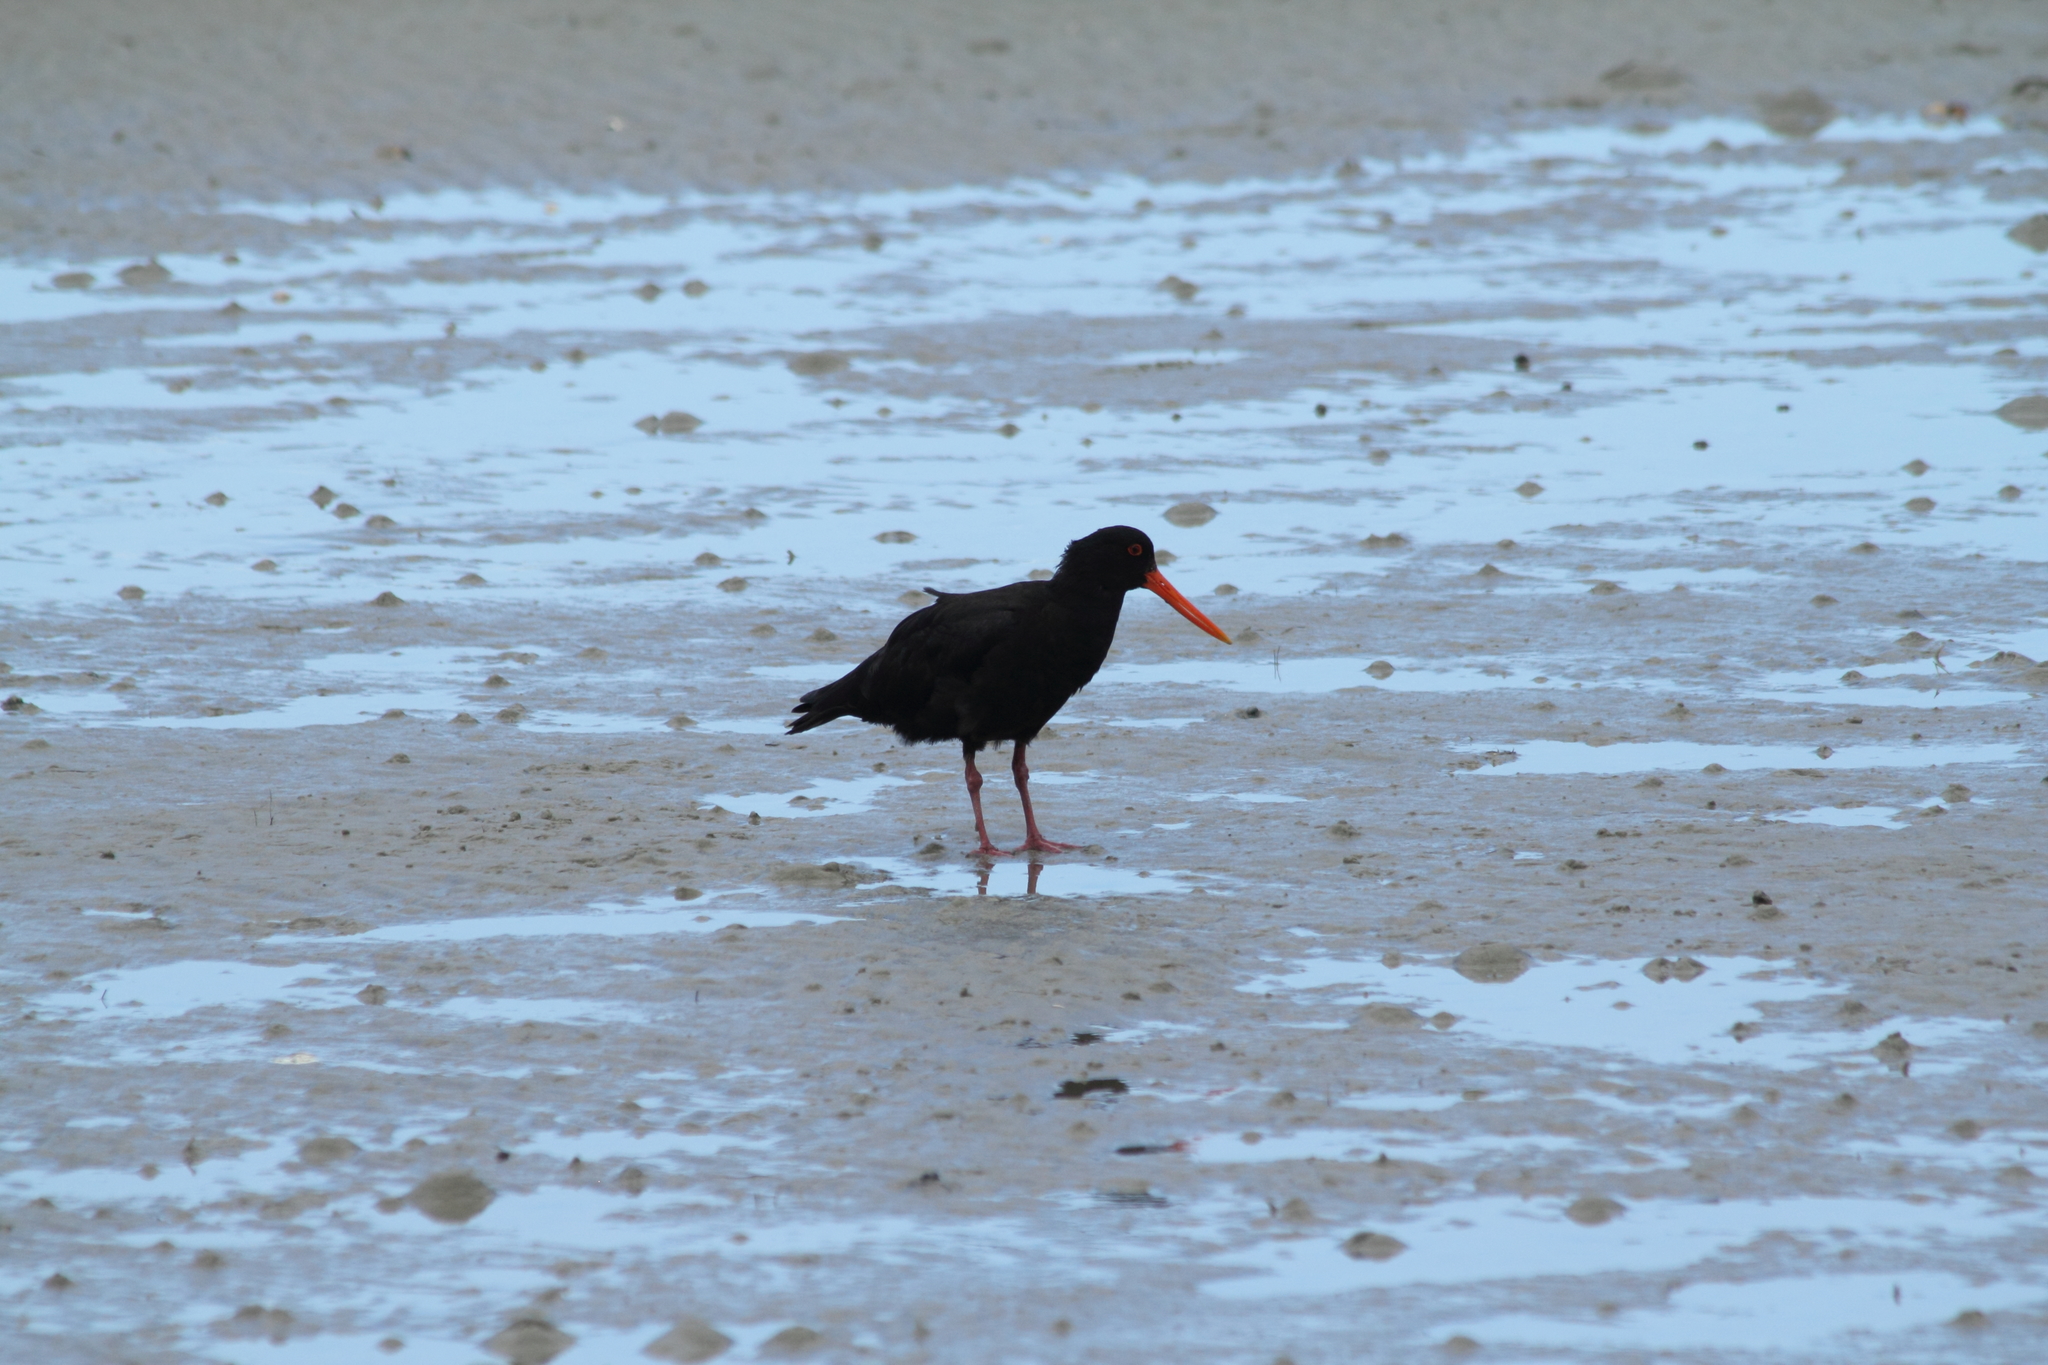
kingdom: Animalia
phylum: Chordata
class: Aves
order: Charadriiformes
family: Haematopodidae
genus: Haematopus
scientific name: Haematopus unicolor
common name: Variable oystercatcher
